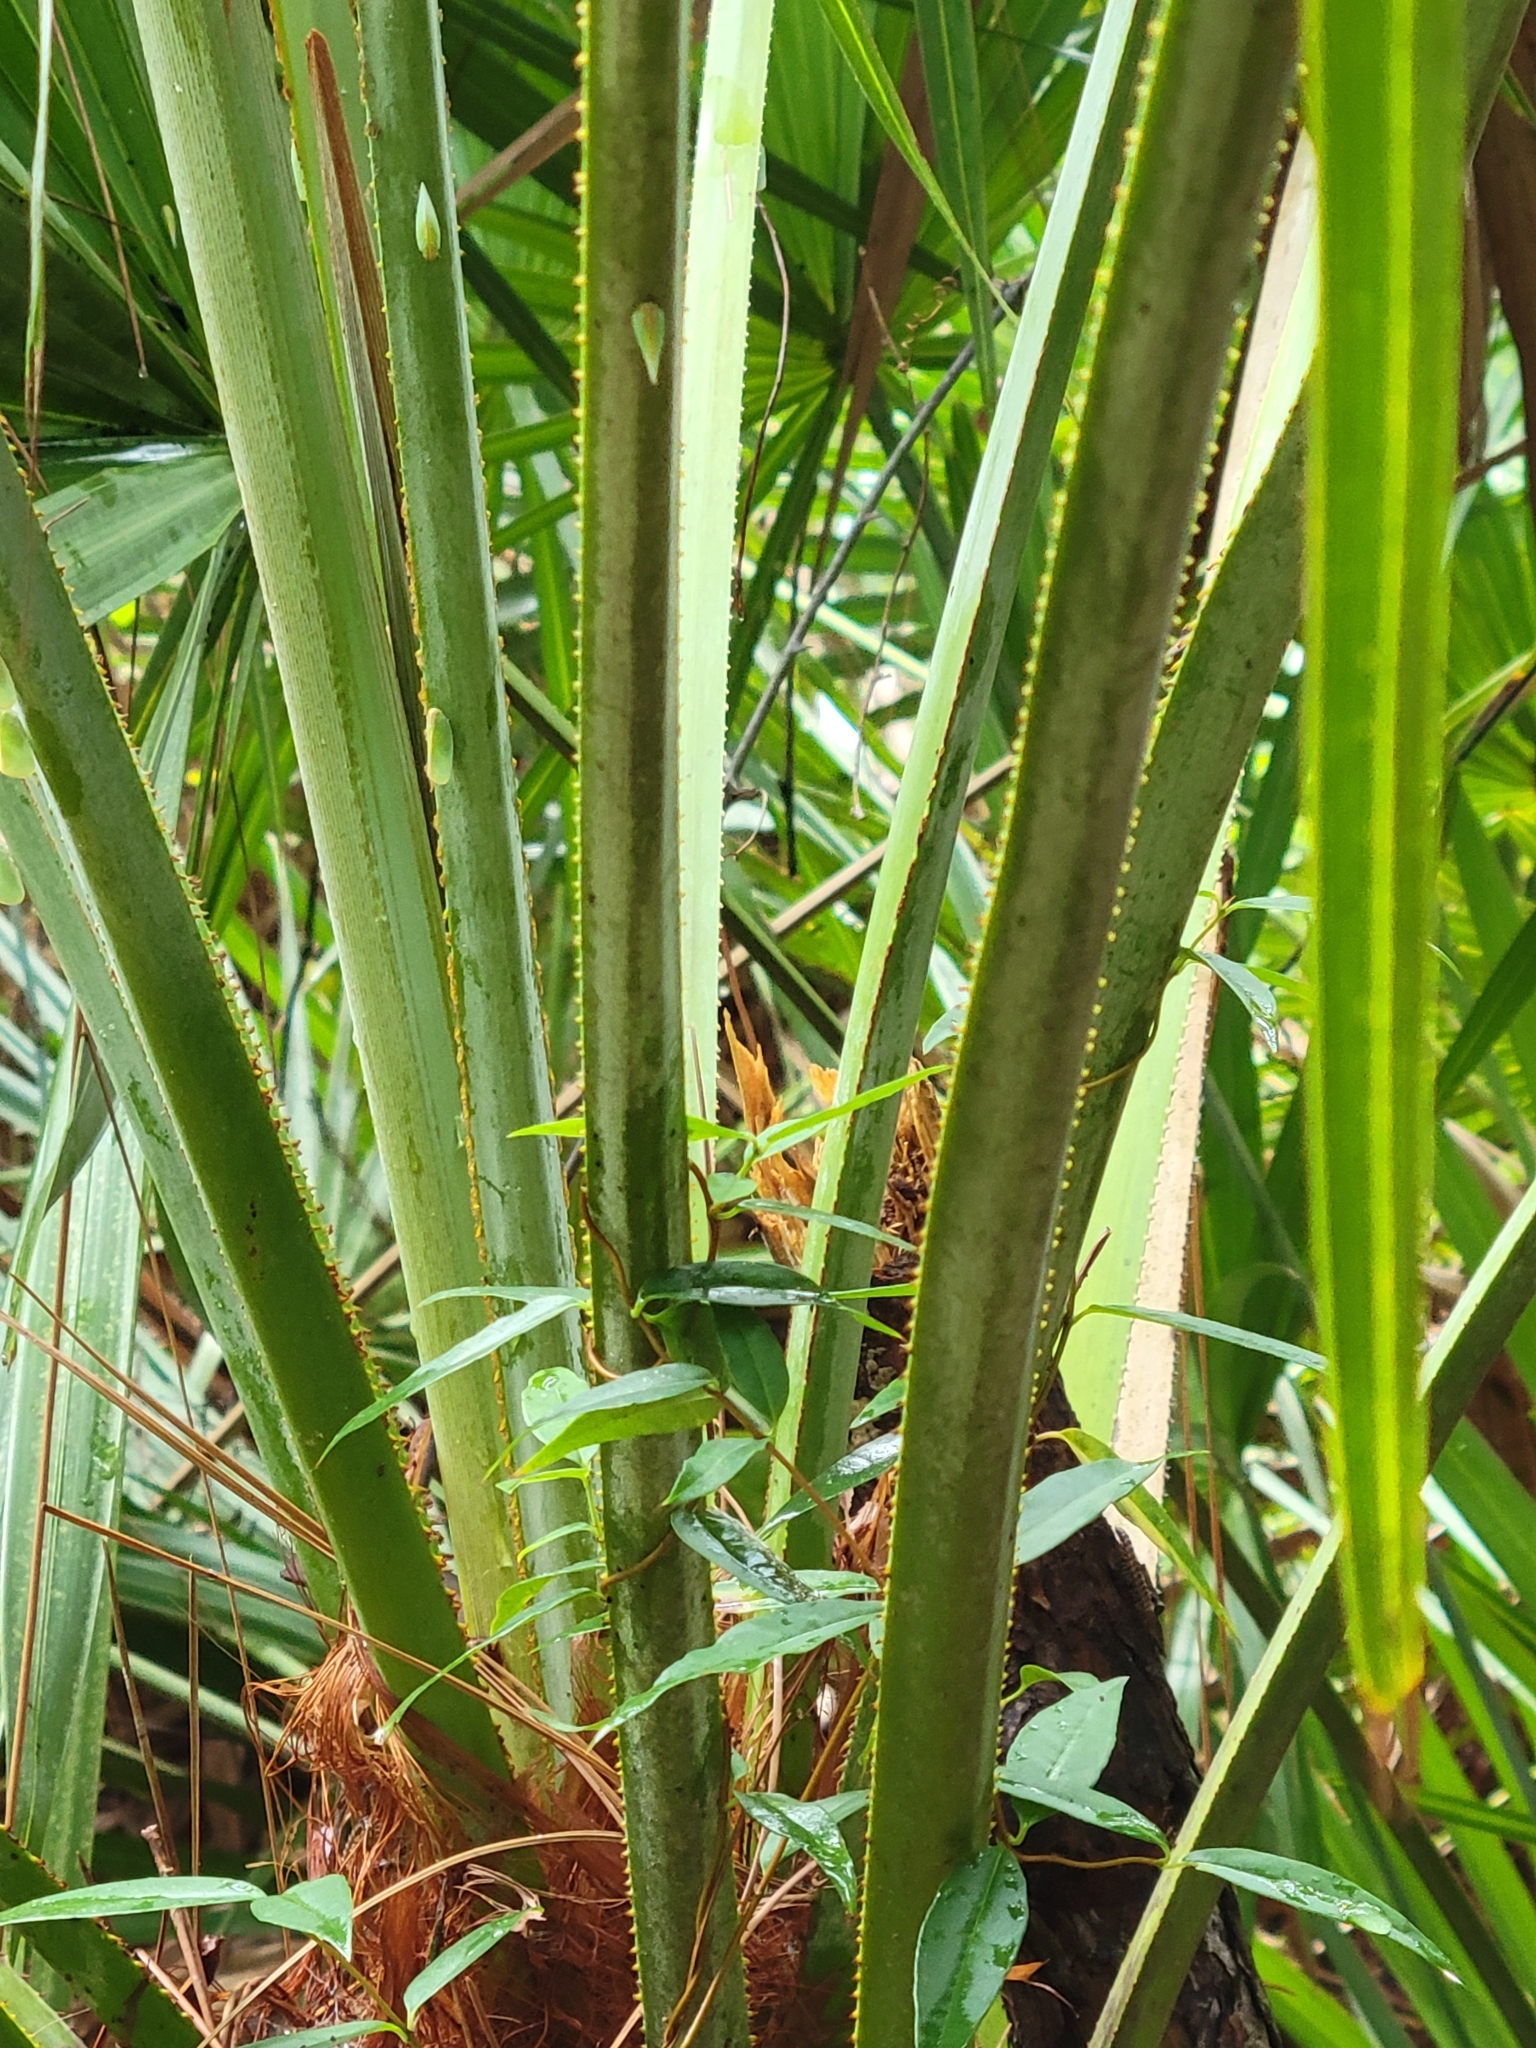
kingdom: Plantae
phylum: Tracheophyta
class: Liliopsida
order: Arecales
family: Arecaceae
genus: Serenoa
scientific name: Serenoa repens
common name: Saw-palmetto
